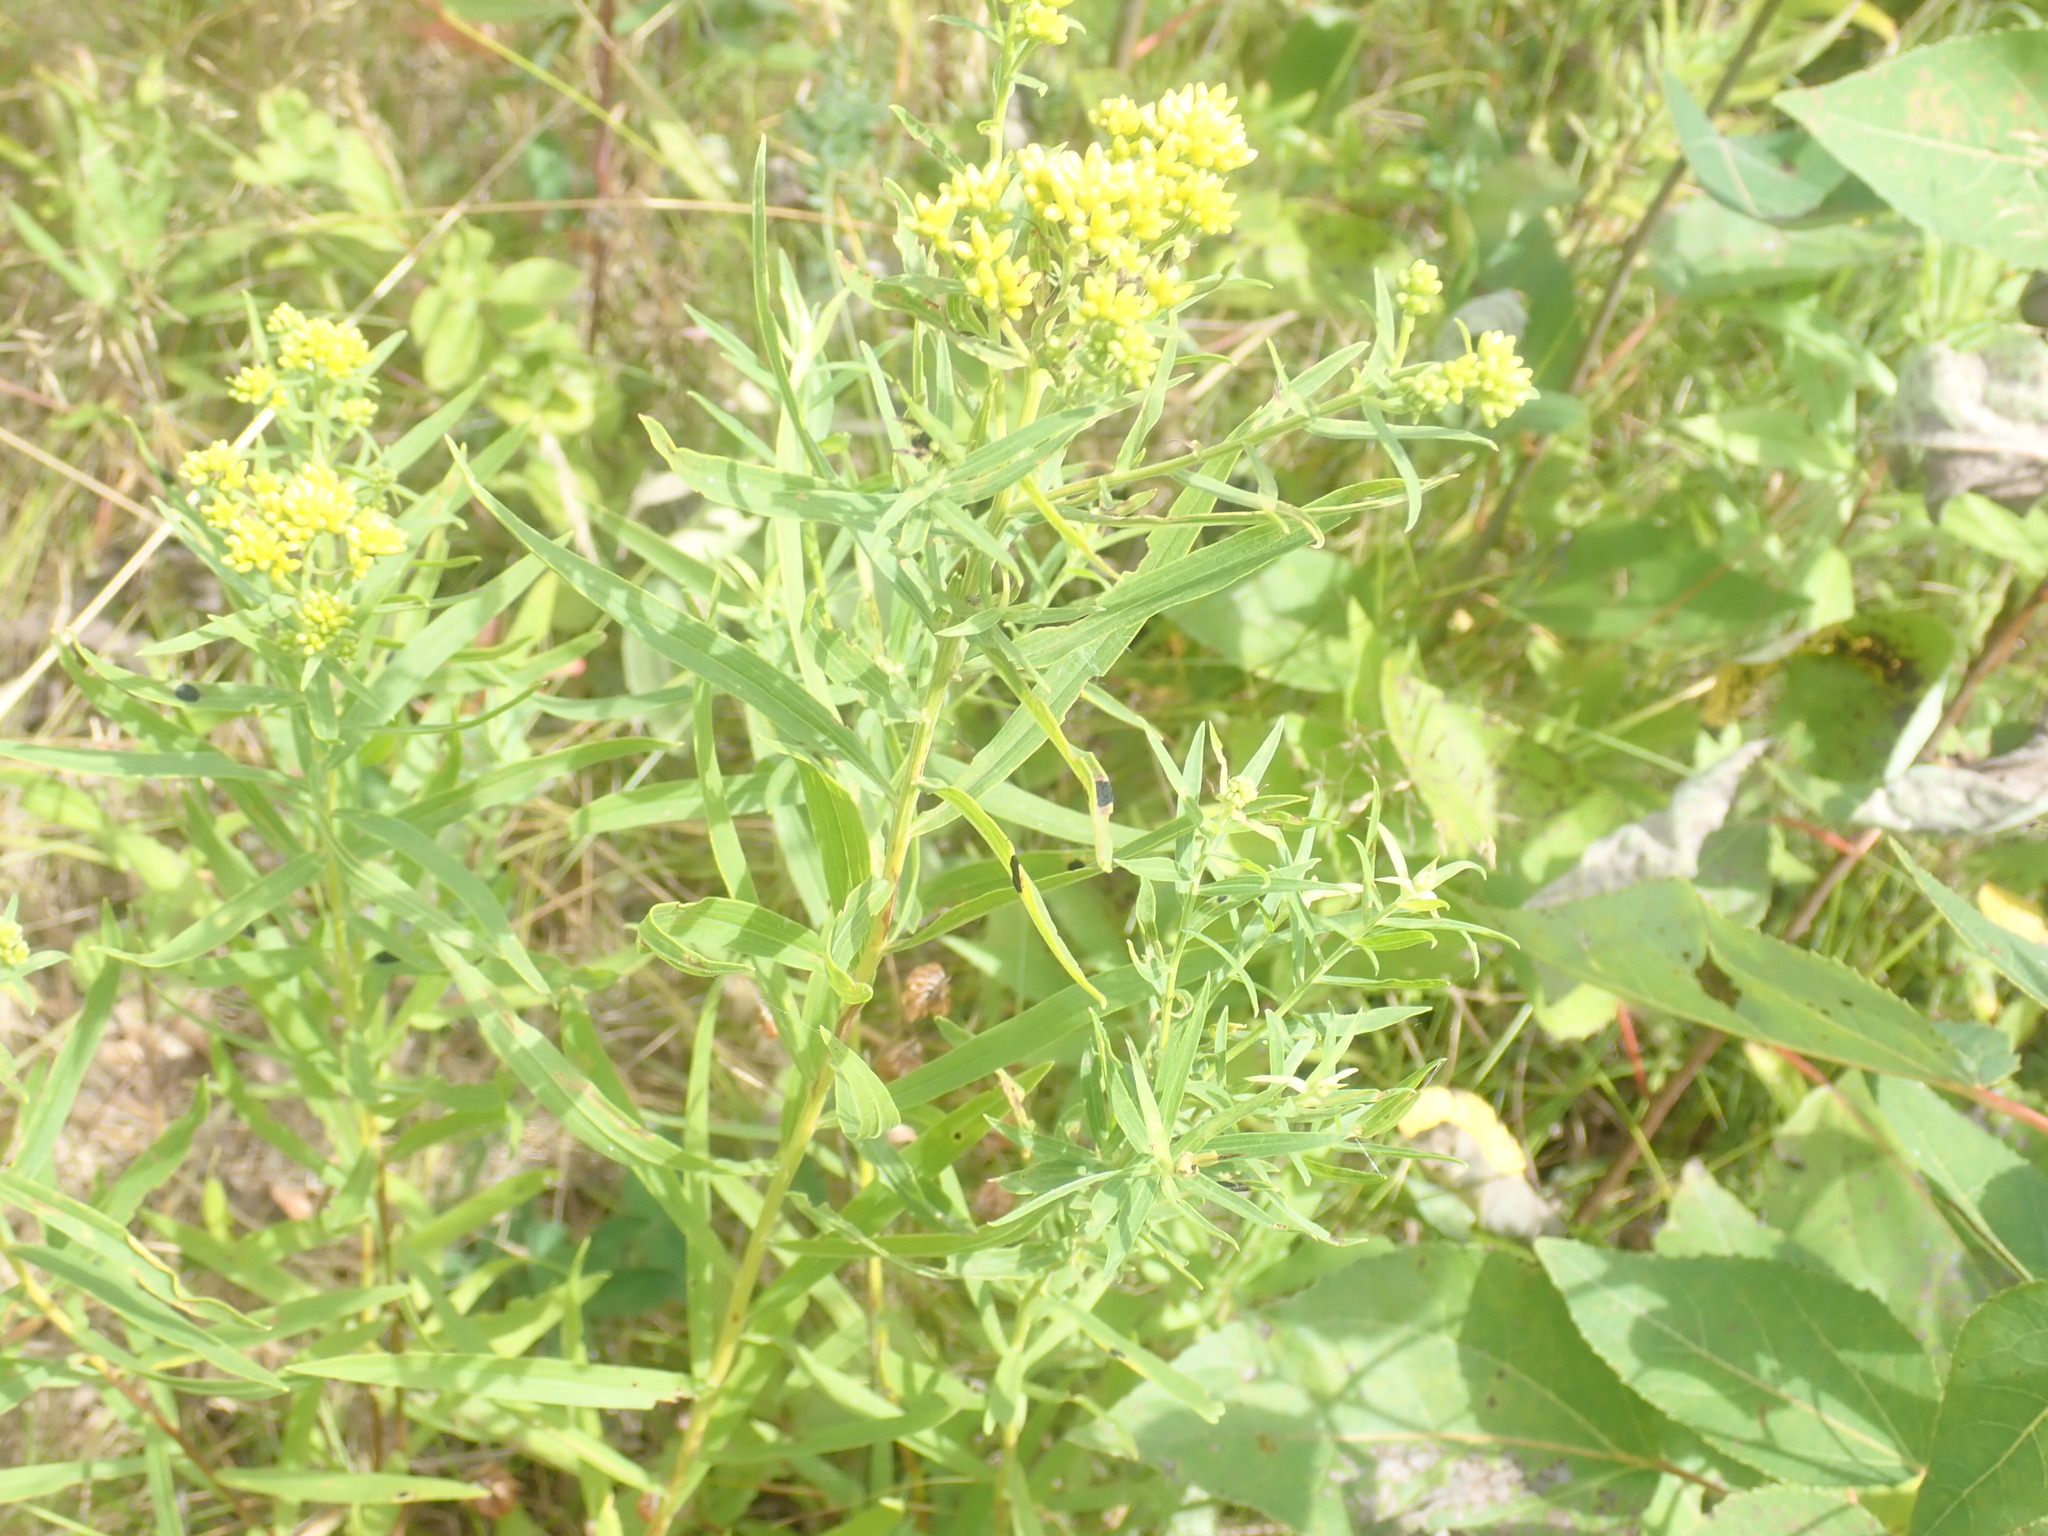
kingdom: Plantae
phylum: Tracheophyta
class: Magnoliopsida
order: Asterales
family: Asteraceae
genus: Euthamia
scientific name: Euthamia
